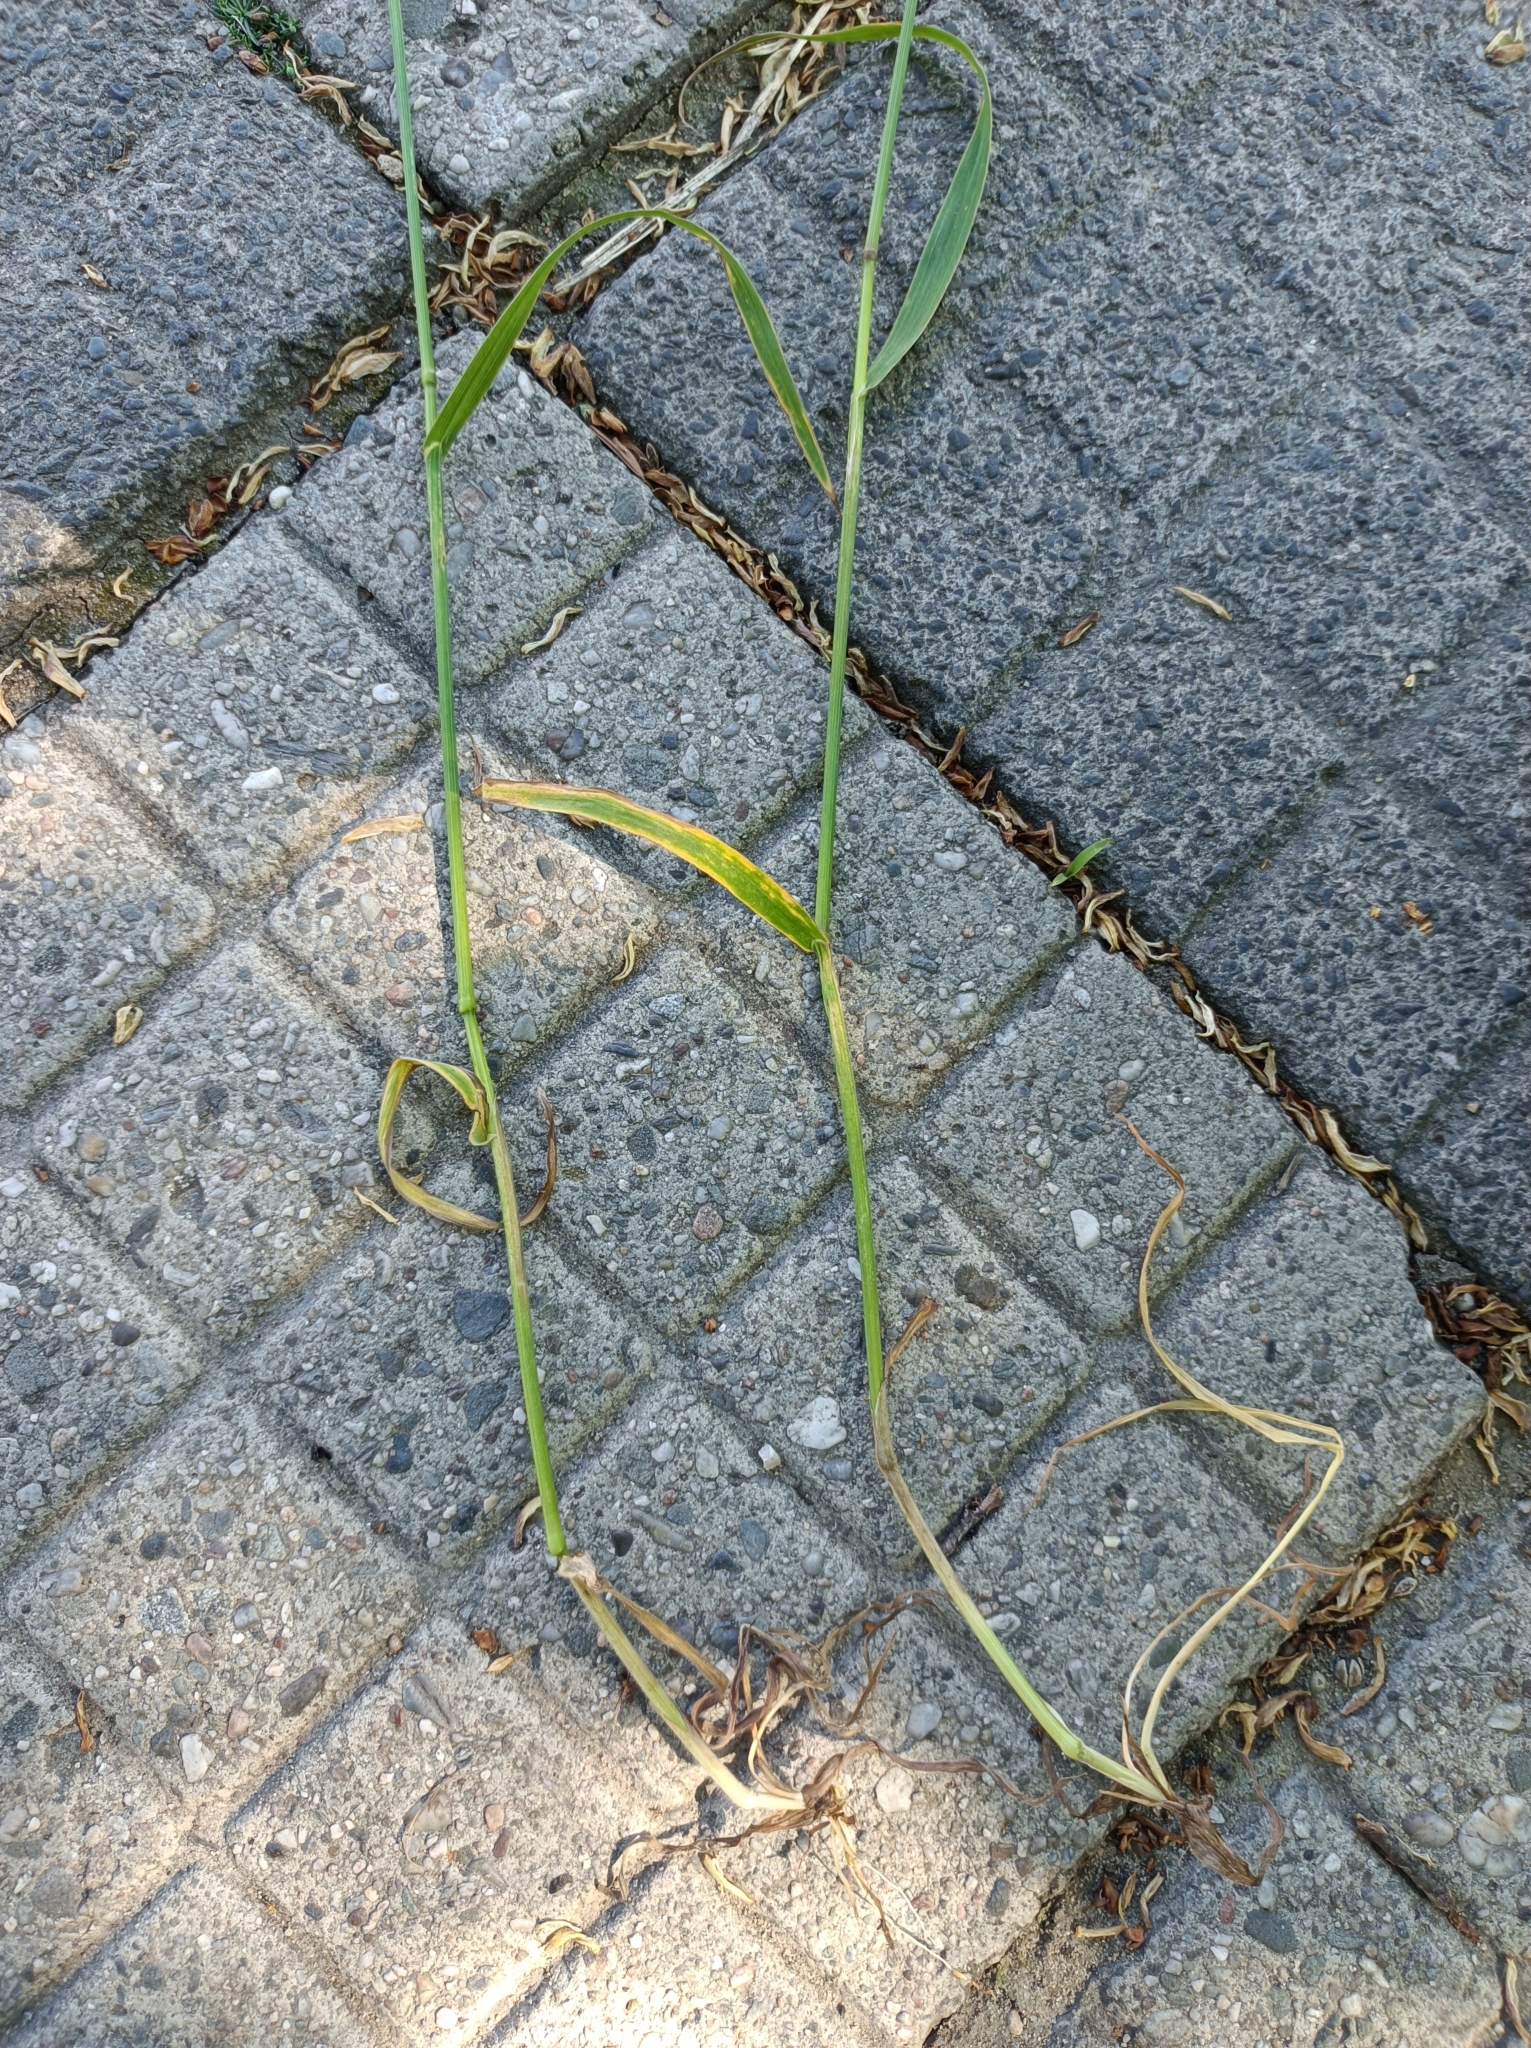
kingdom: Plantae
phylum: Tracheophyta
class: Liliopsida
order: Poales
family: Poaceae
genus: Bromus
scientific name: Bromus sterilis
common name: Poverty brome
